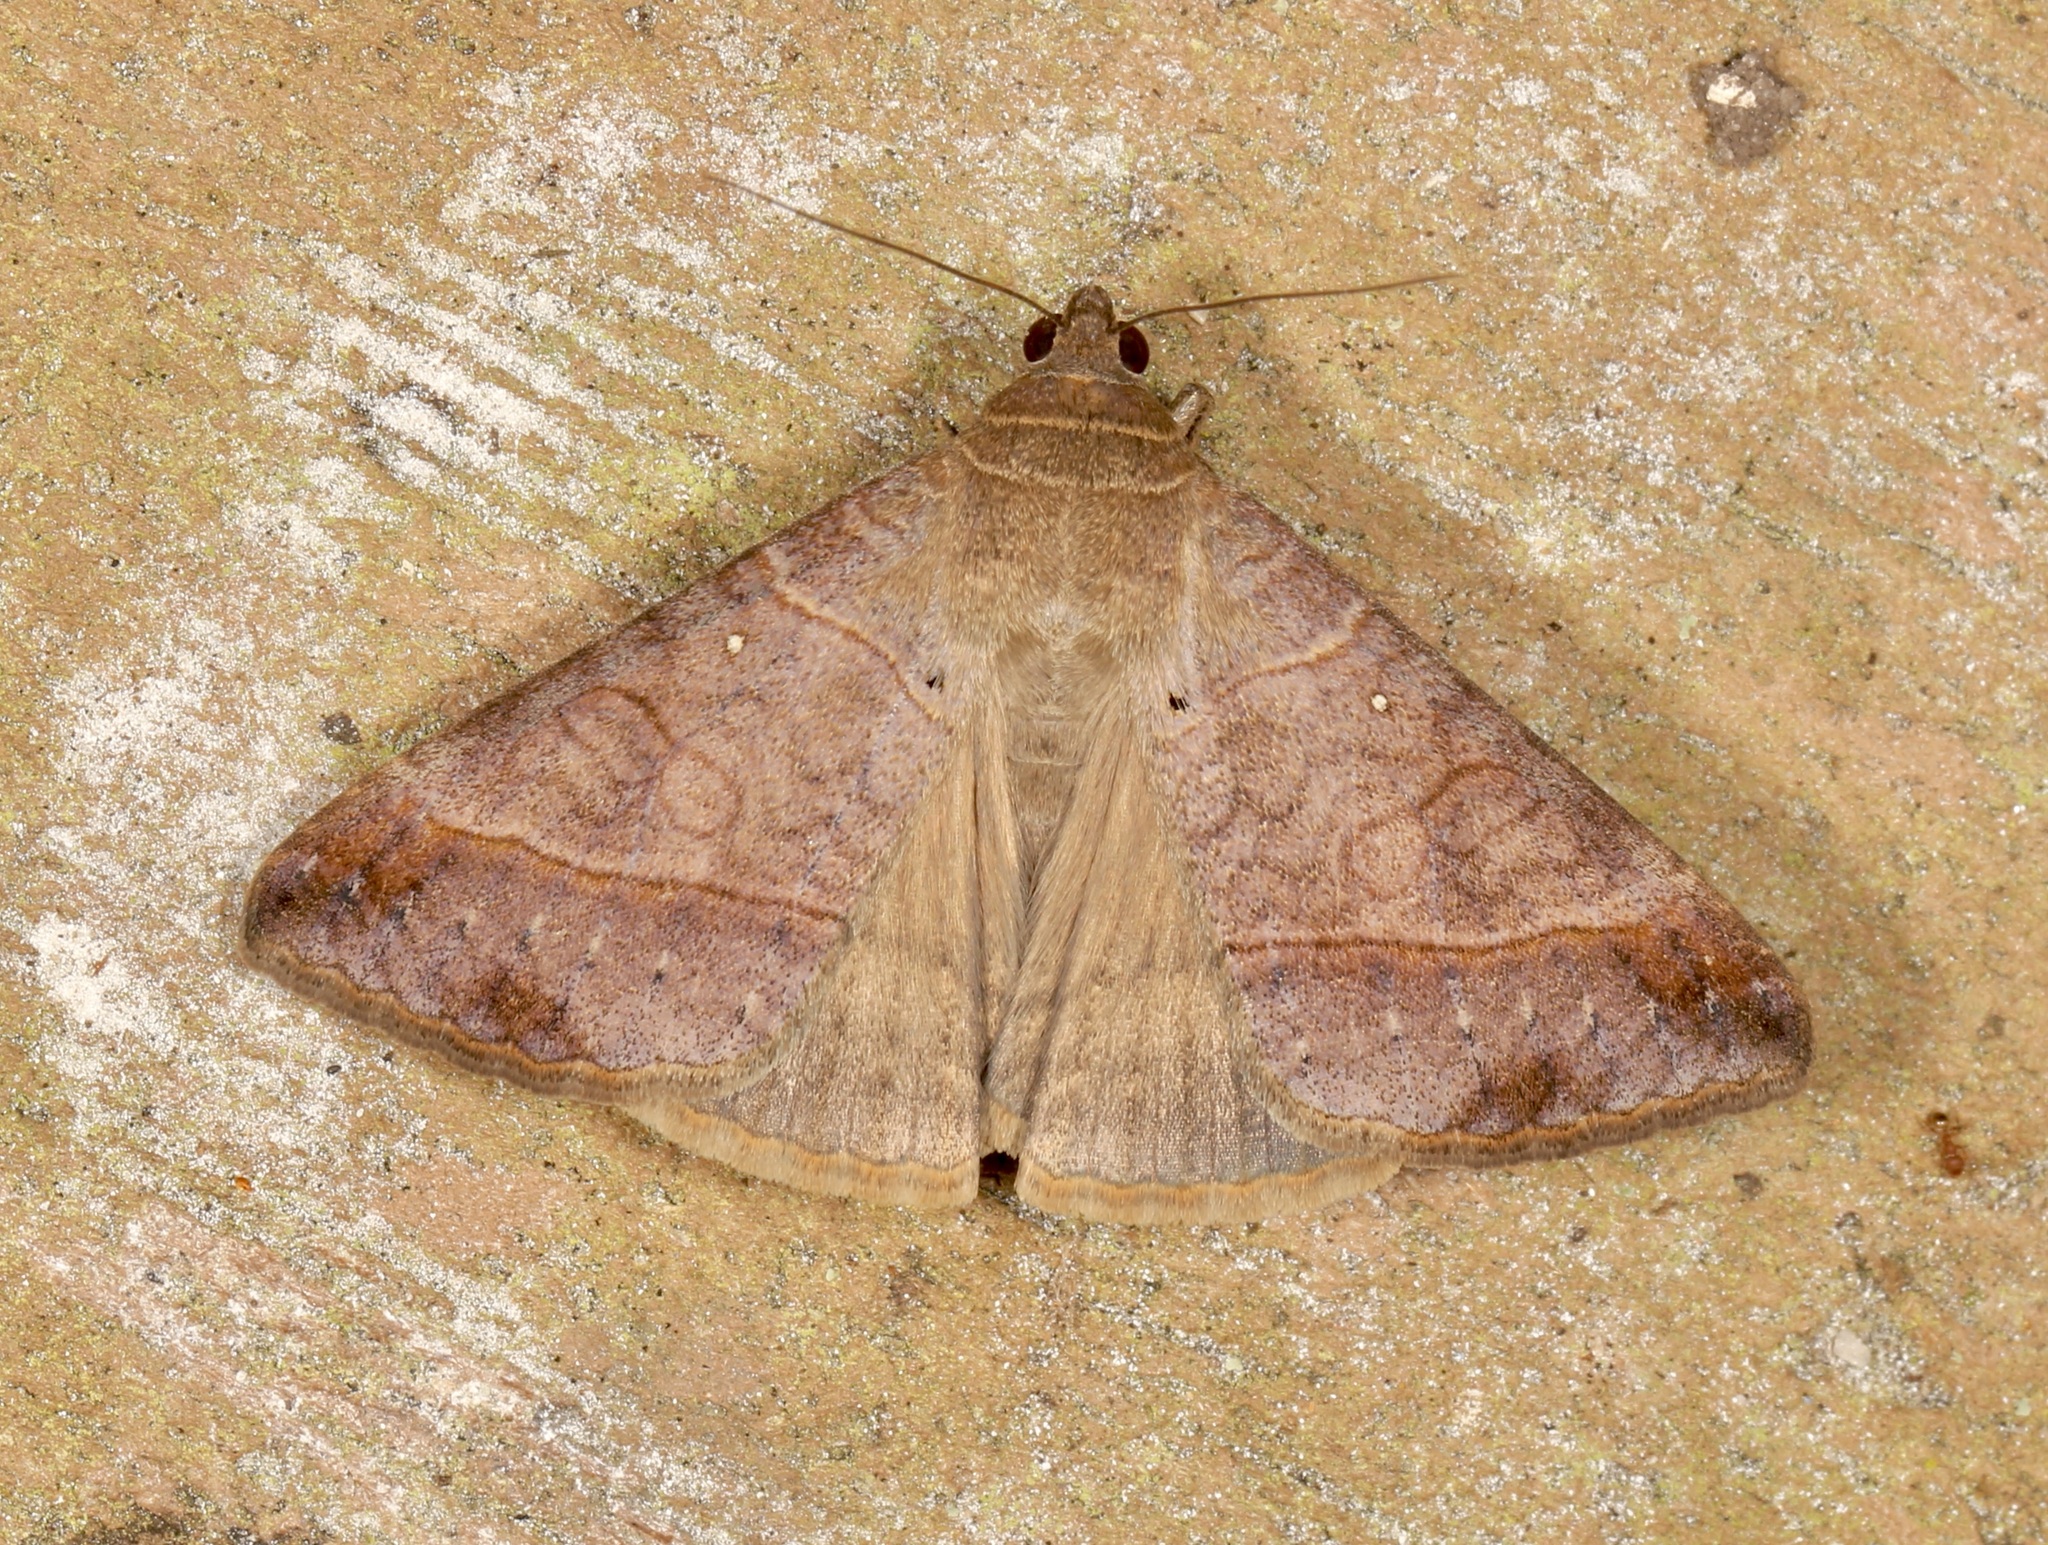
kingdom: Animalia
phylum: Arthropoda
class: Insecta
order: Lepidoptera
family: Erebidae
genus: Mocis
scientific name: Mocis latipes
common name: Striped grass looper
